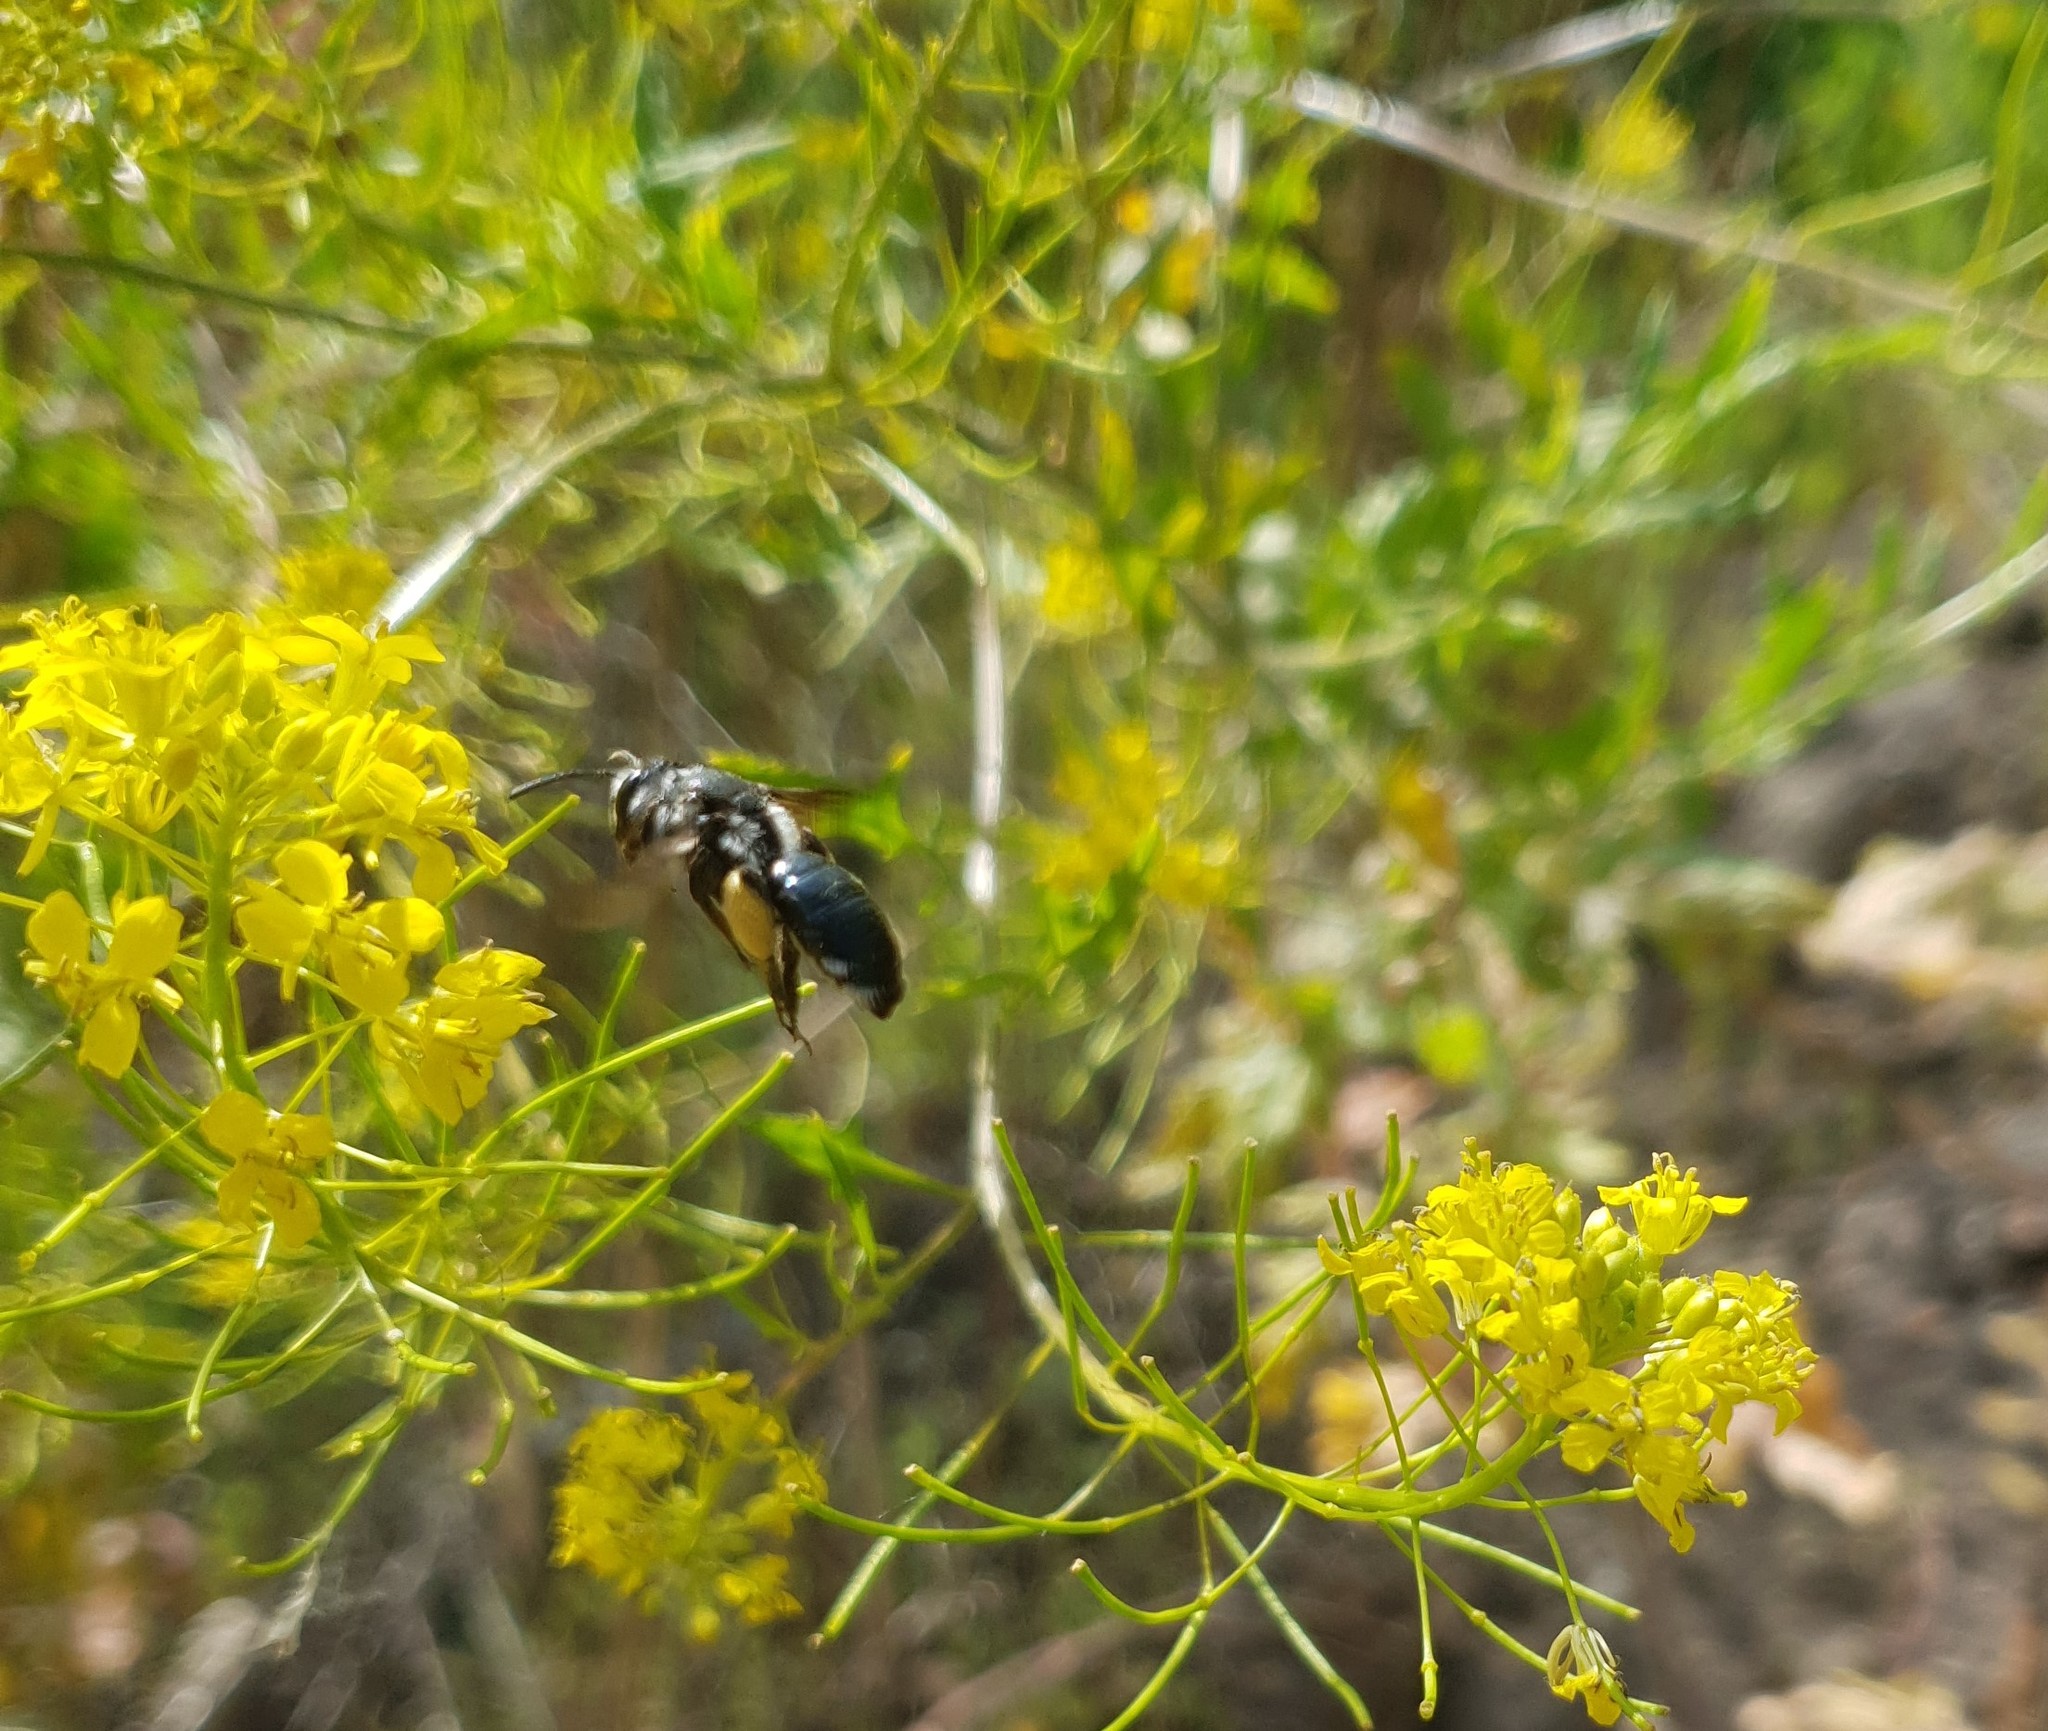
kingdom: Animalia
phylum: Arthropoda
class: Insecta
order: Hymenoptera
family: Andrenidae
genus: Andrena
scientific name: Andrena agilissima
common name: Violet-winged mining bee
